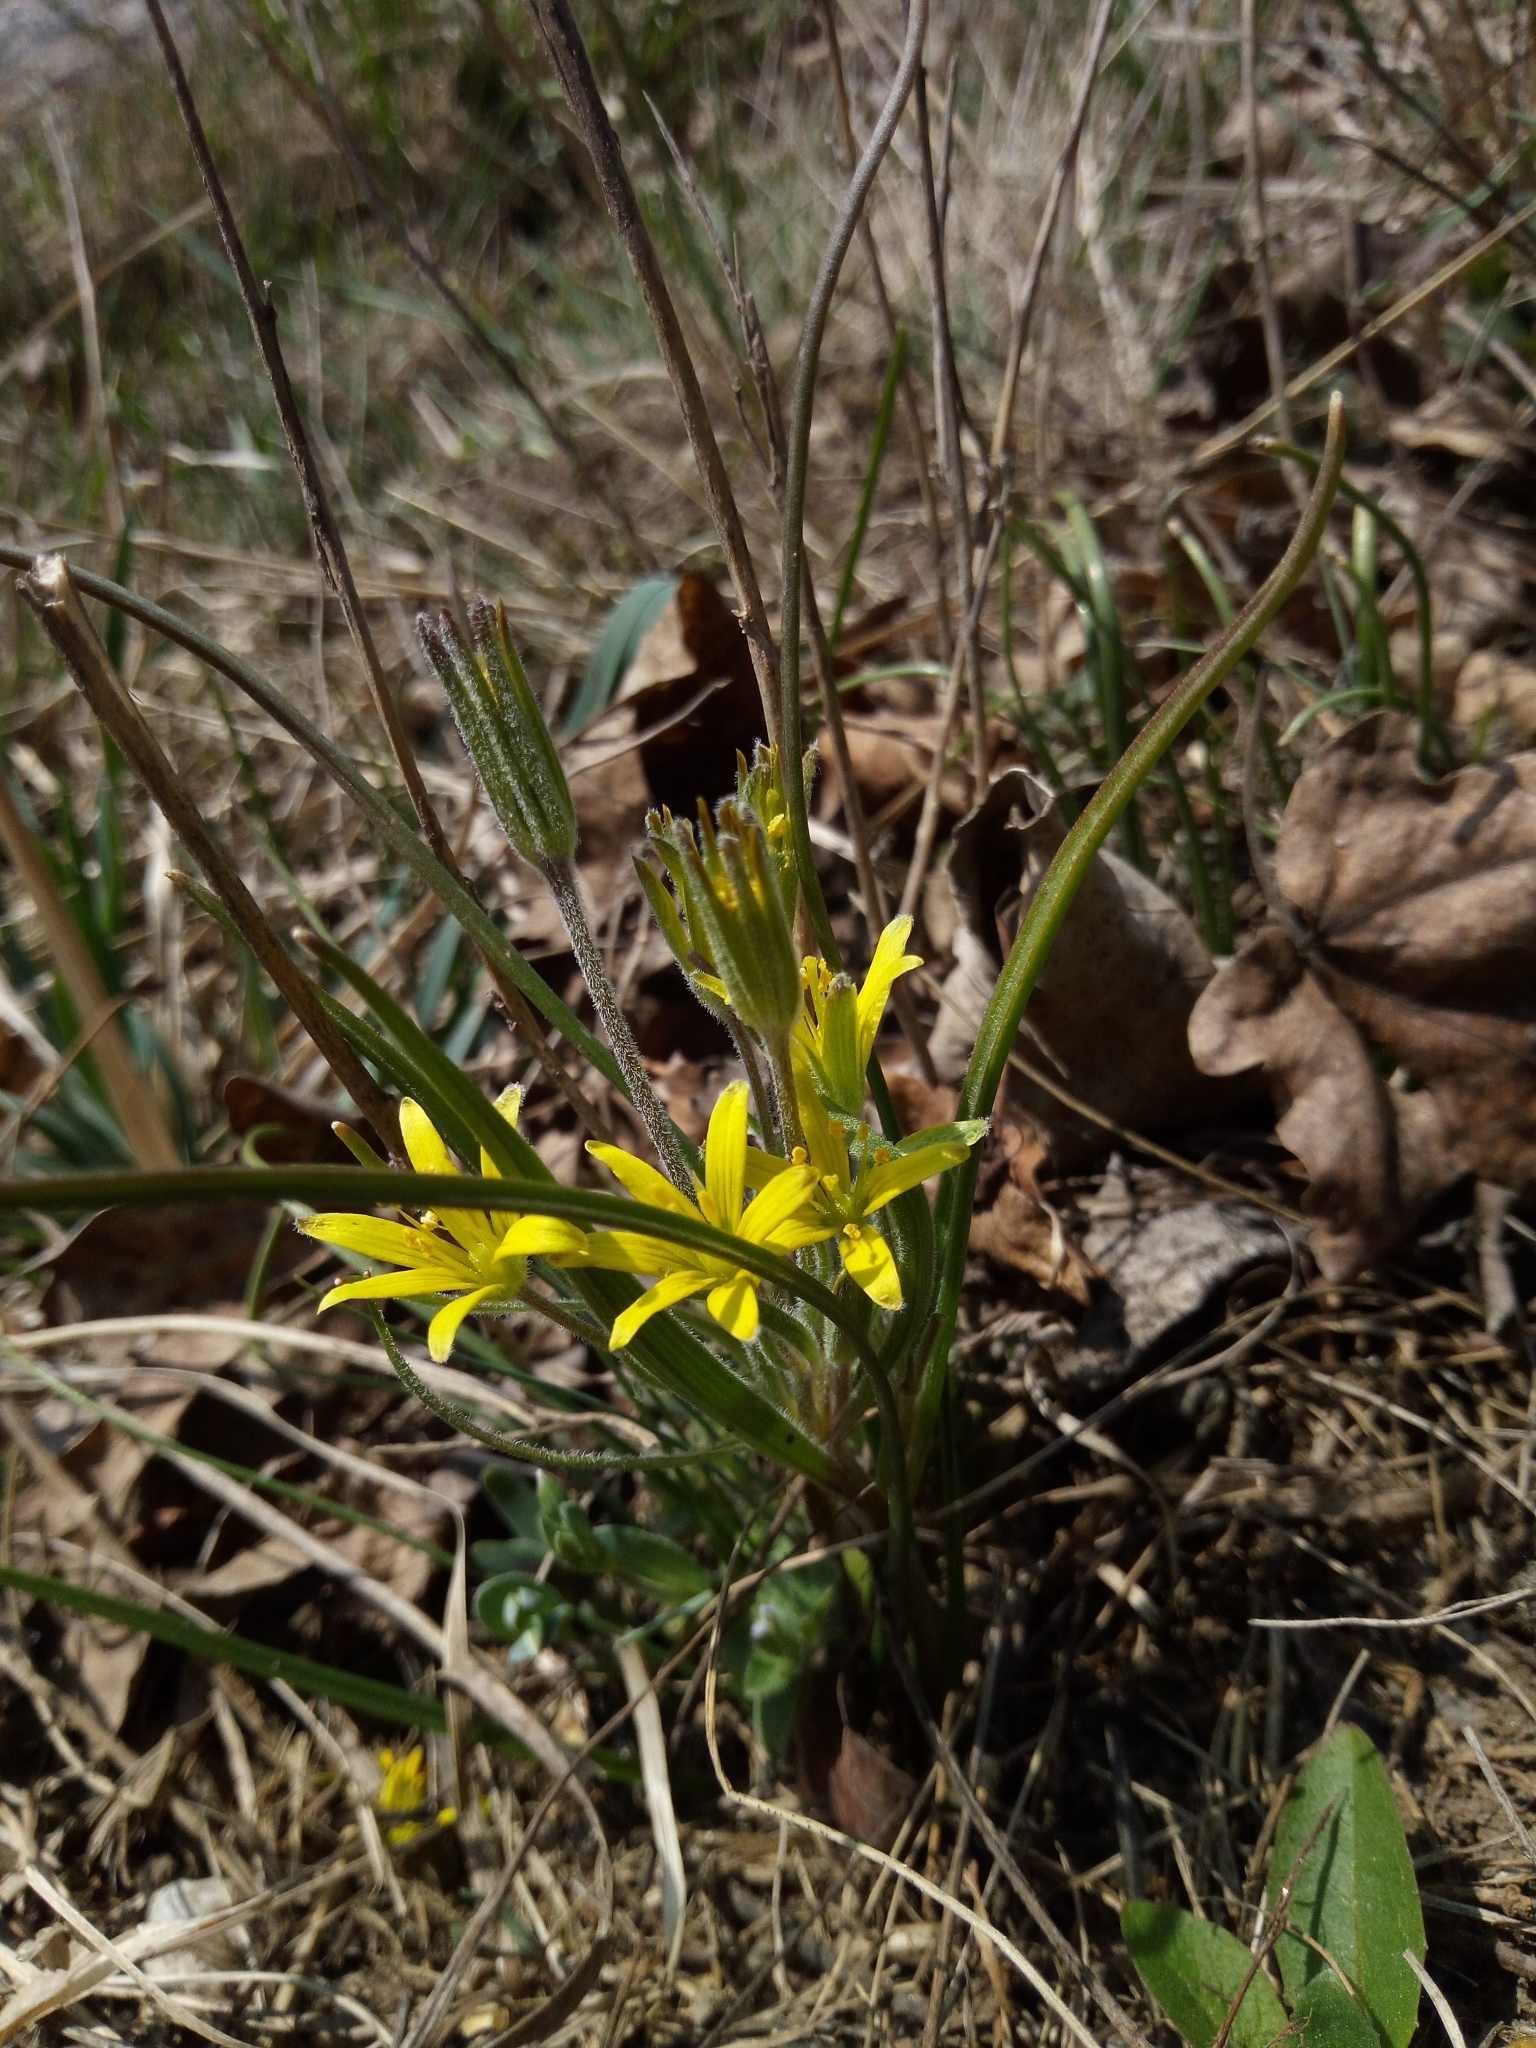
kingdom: Plantae
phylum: Tracheophyta
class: Liliopsida
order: Liliales
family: Liliaceae
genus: Gagea
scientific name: Gagea villosa
